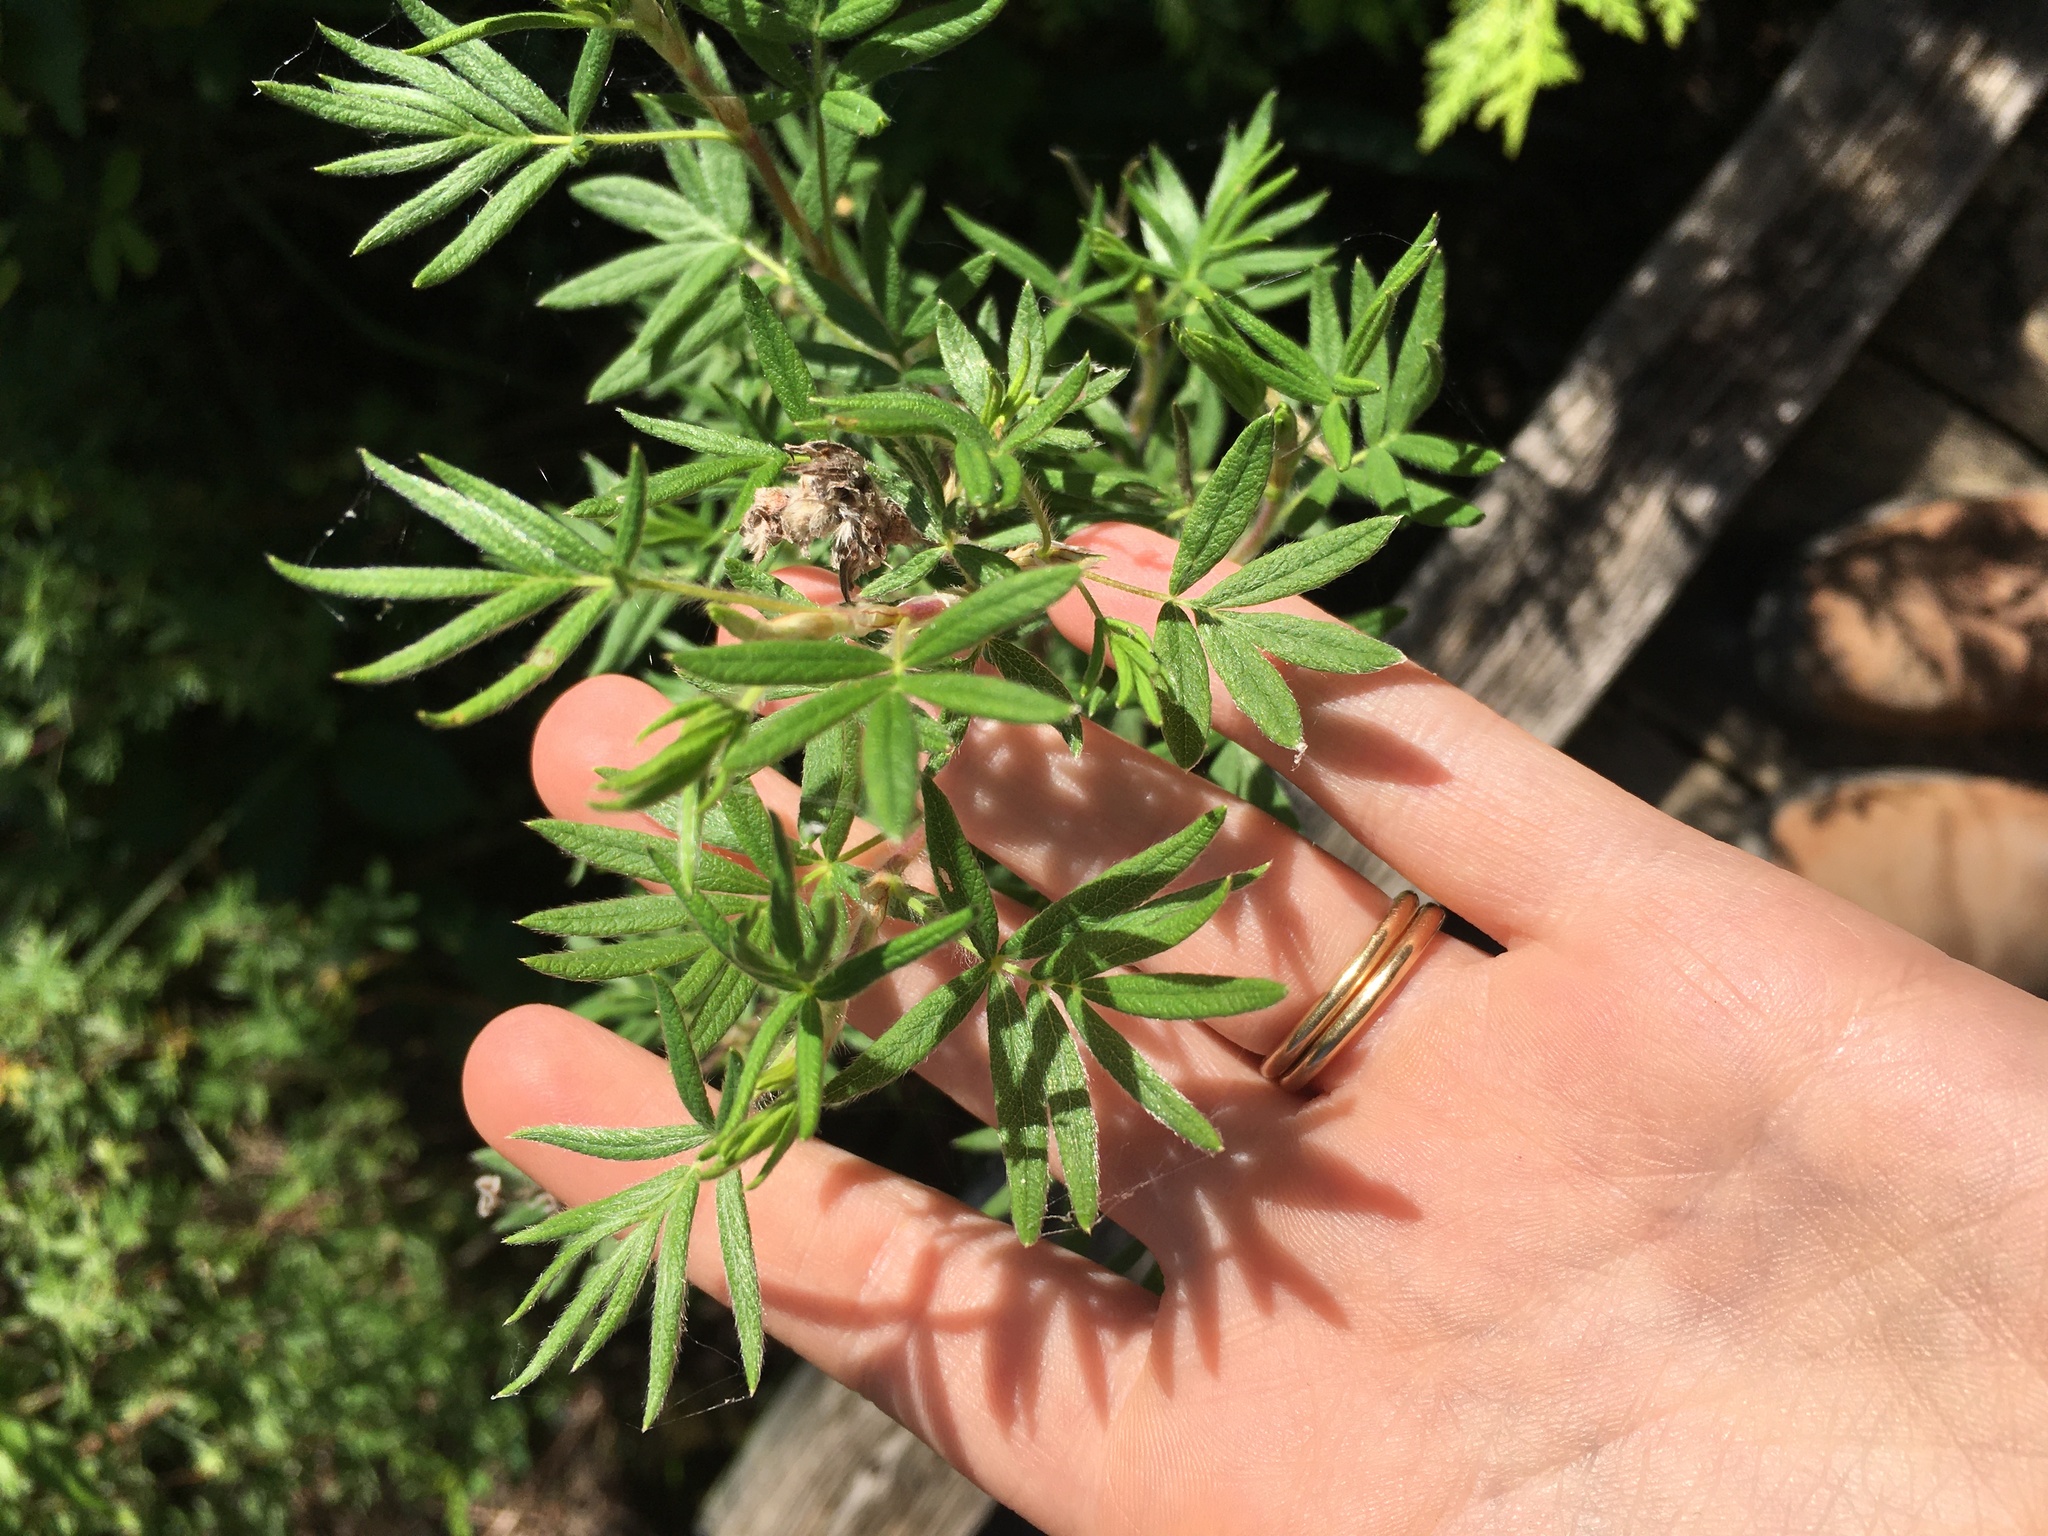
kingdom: Plantae
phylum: Tracheophyta
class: Magnoliopsida
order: Rosales
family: Rosaceae
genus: Dasiphora
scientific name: Dasiphora fruticosa
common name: Shrubby cinquefoil
